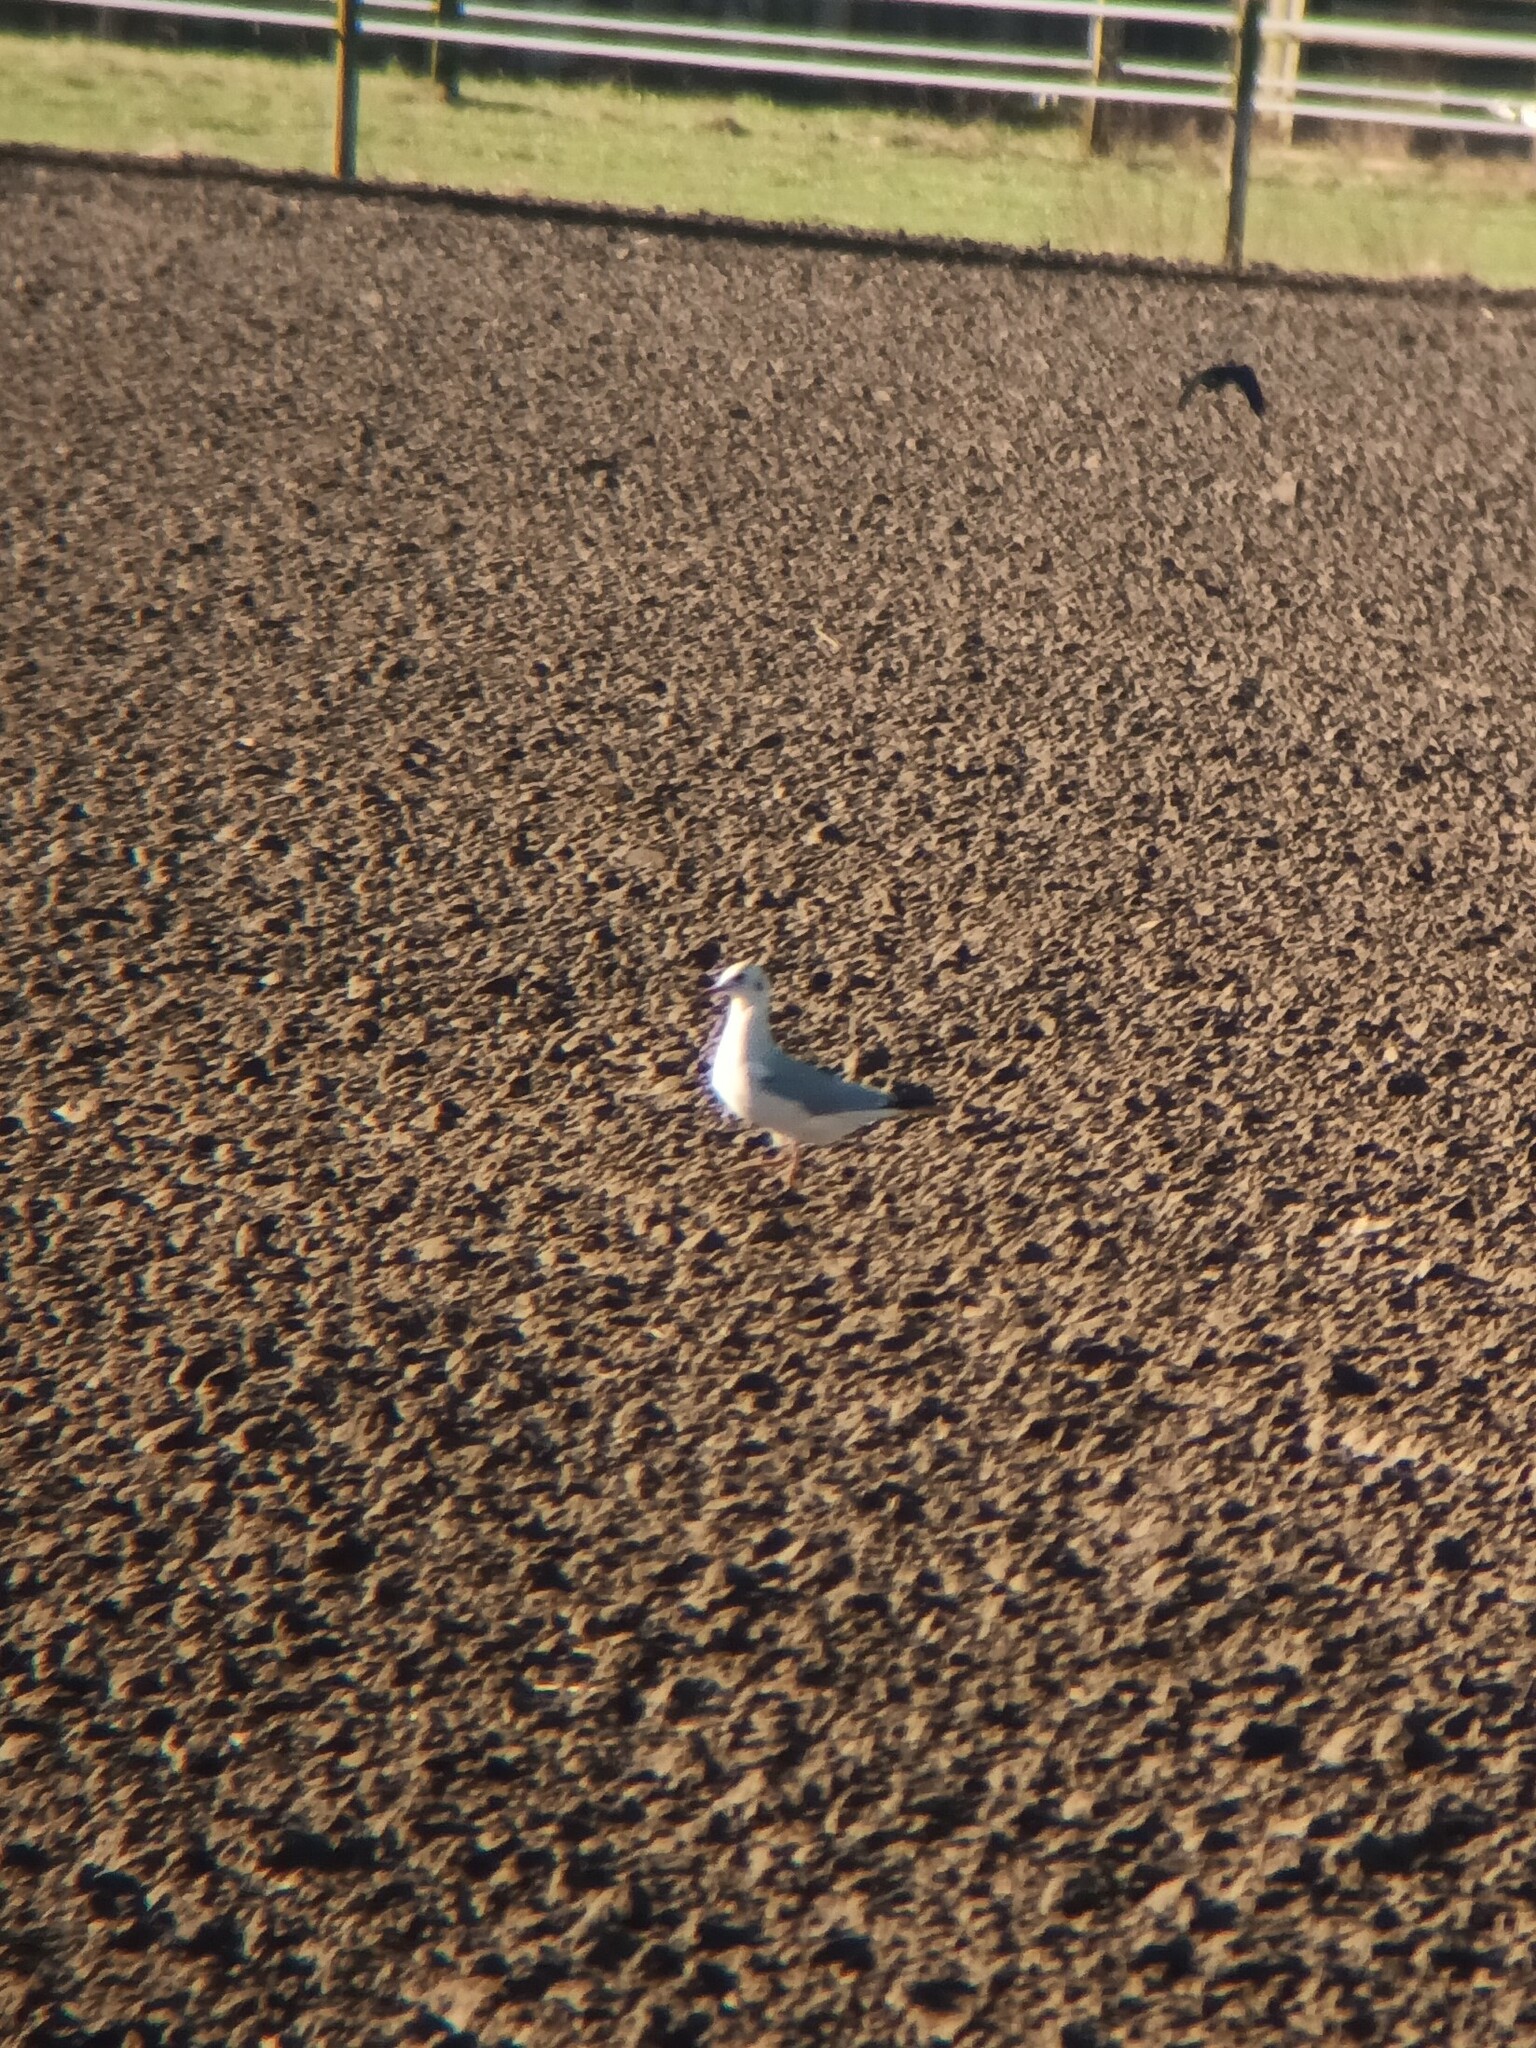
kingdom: Animalia
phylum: Chordata
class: Aves
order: Charadriiformes
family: Laridae
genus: Chroicocephalus
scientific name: Chroicocephalus ridibundus
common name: Black-headed gull
